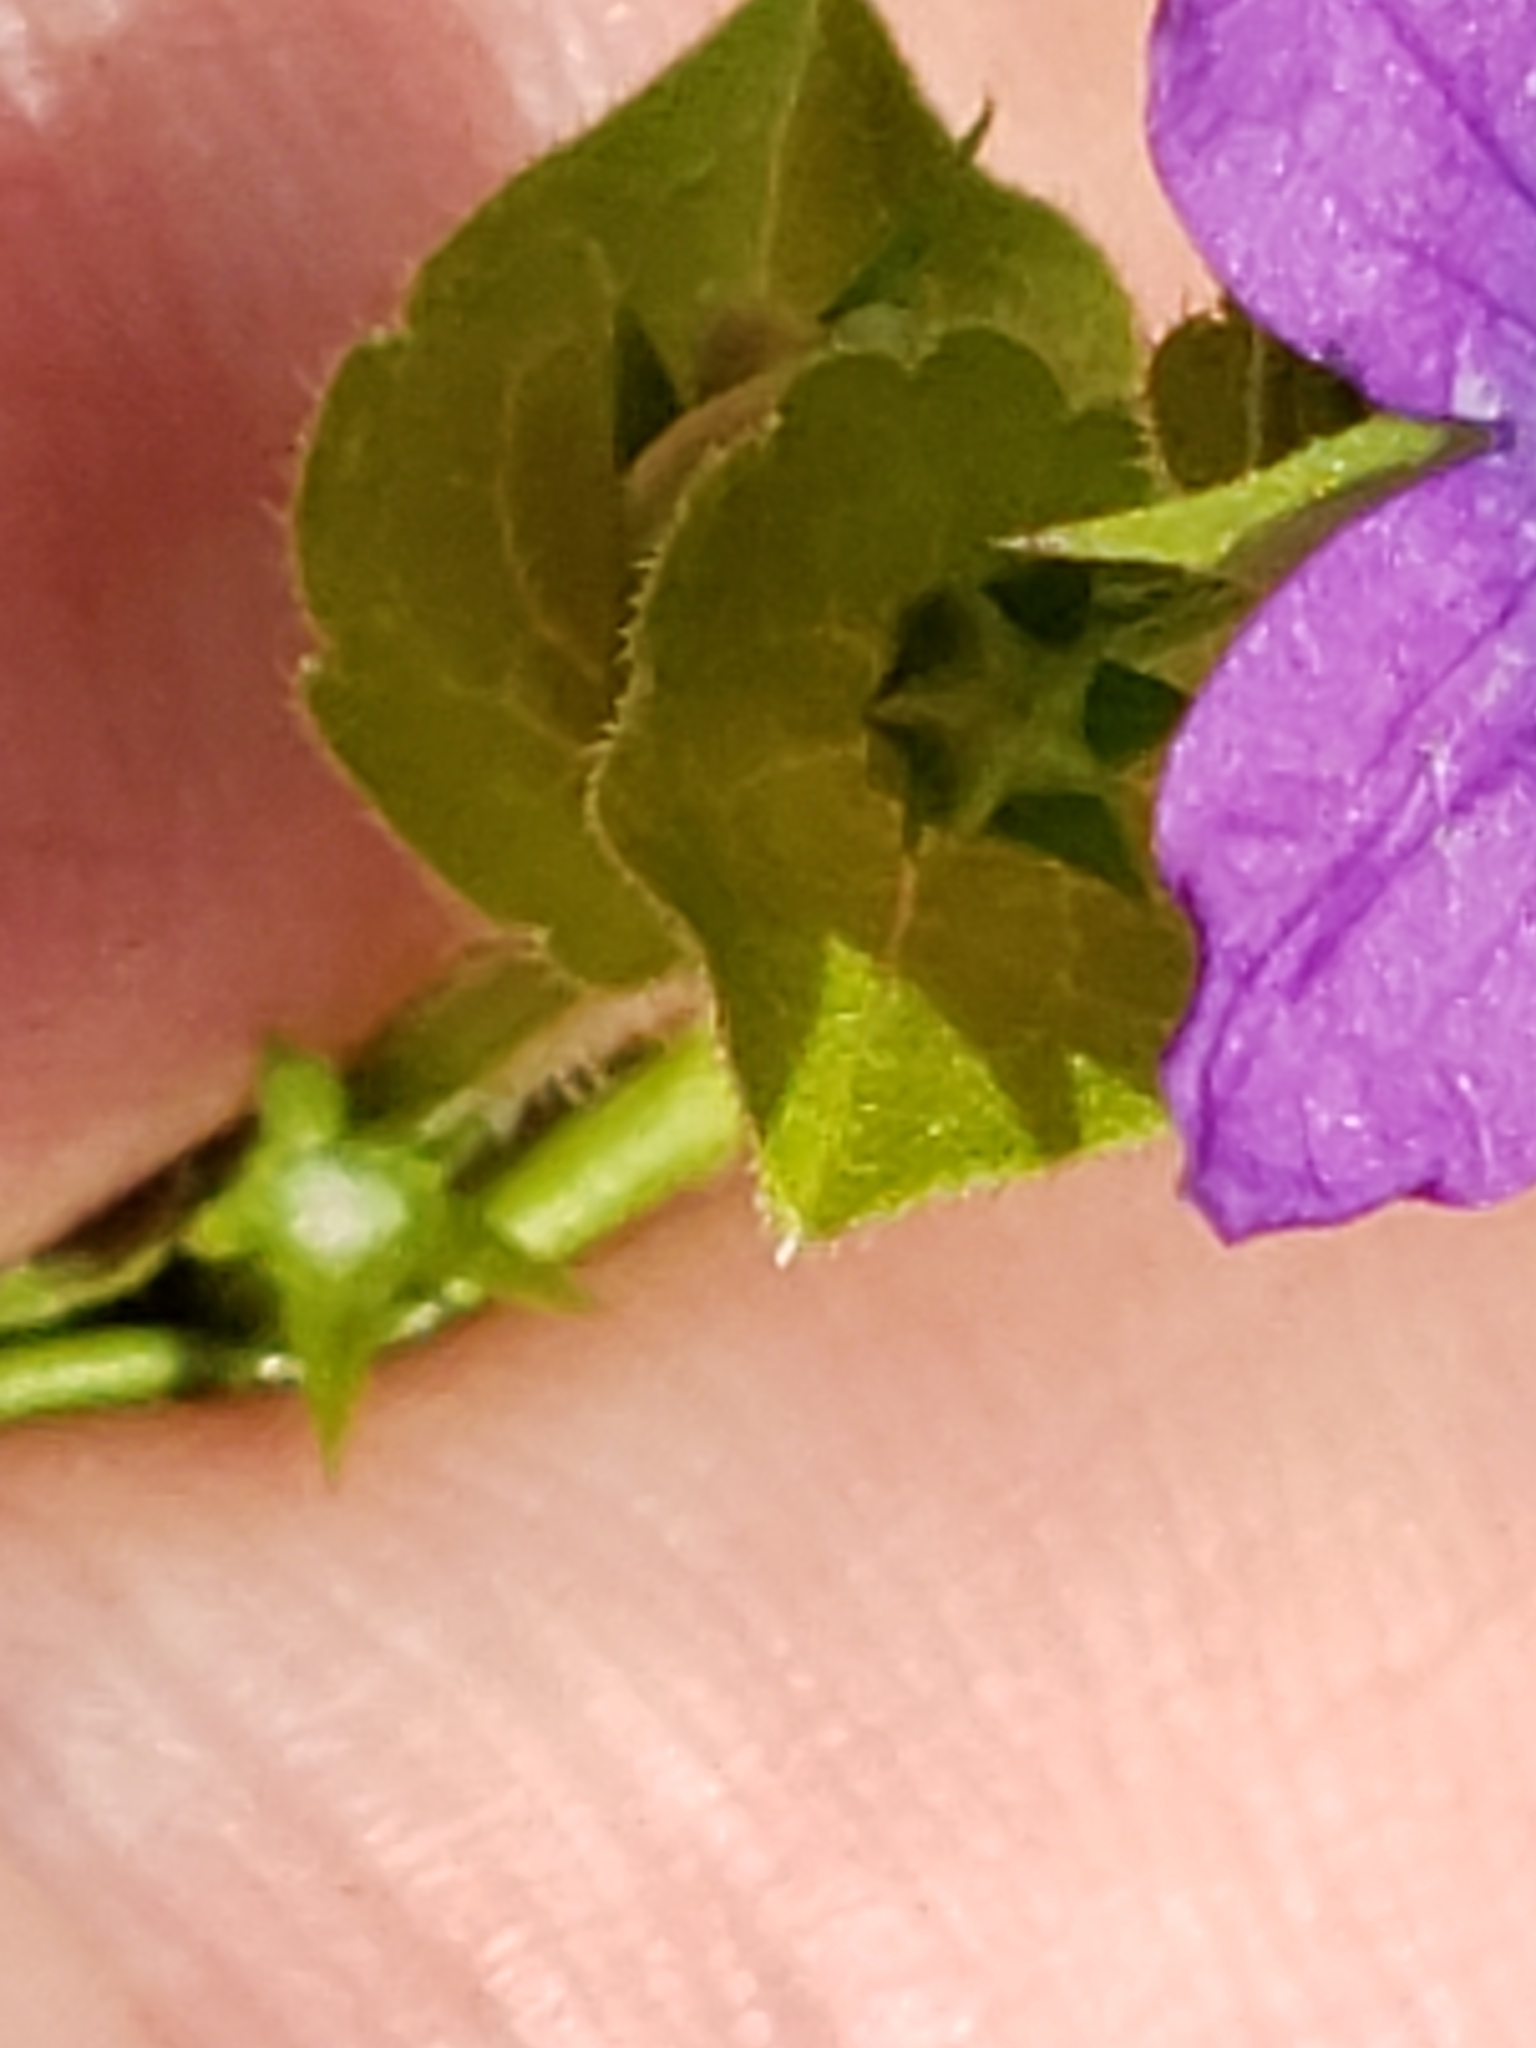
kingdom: Plantae
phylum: Tracheophyta
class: Magnoliopsida
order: Asterales
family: Campanulaceae
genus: Triodanis
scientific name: Triodanis perfoliata
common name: Clasping venus' looking-glass
